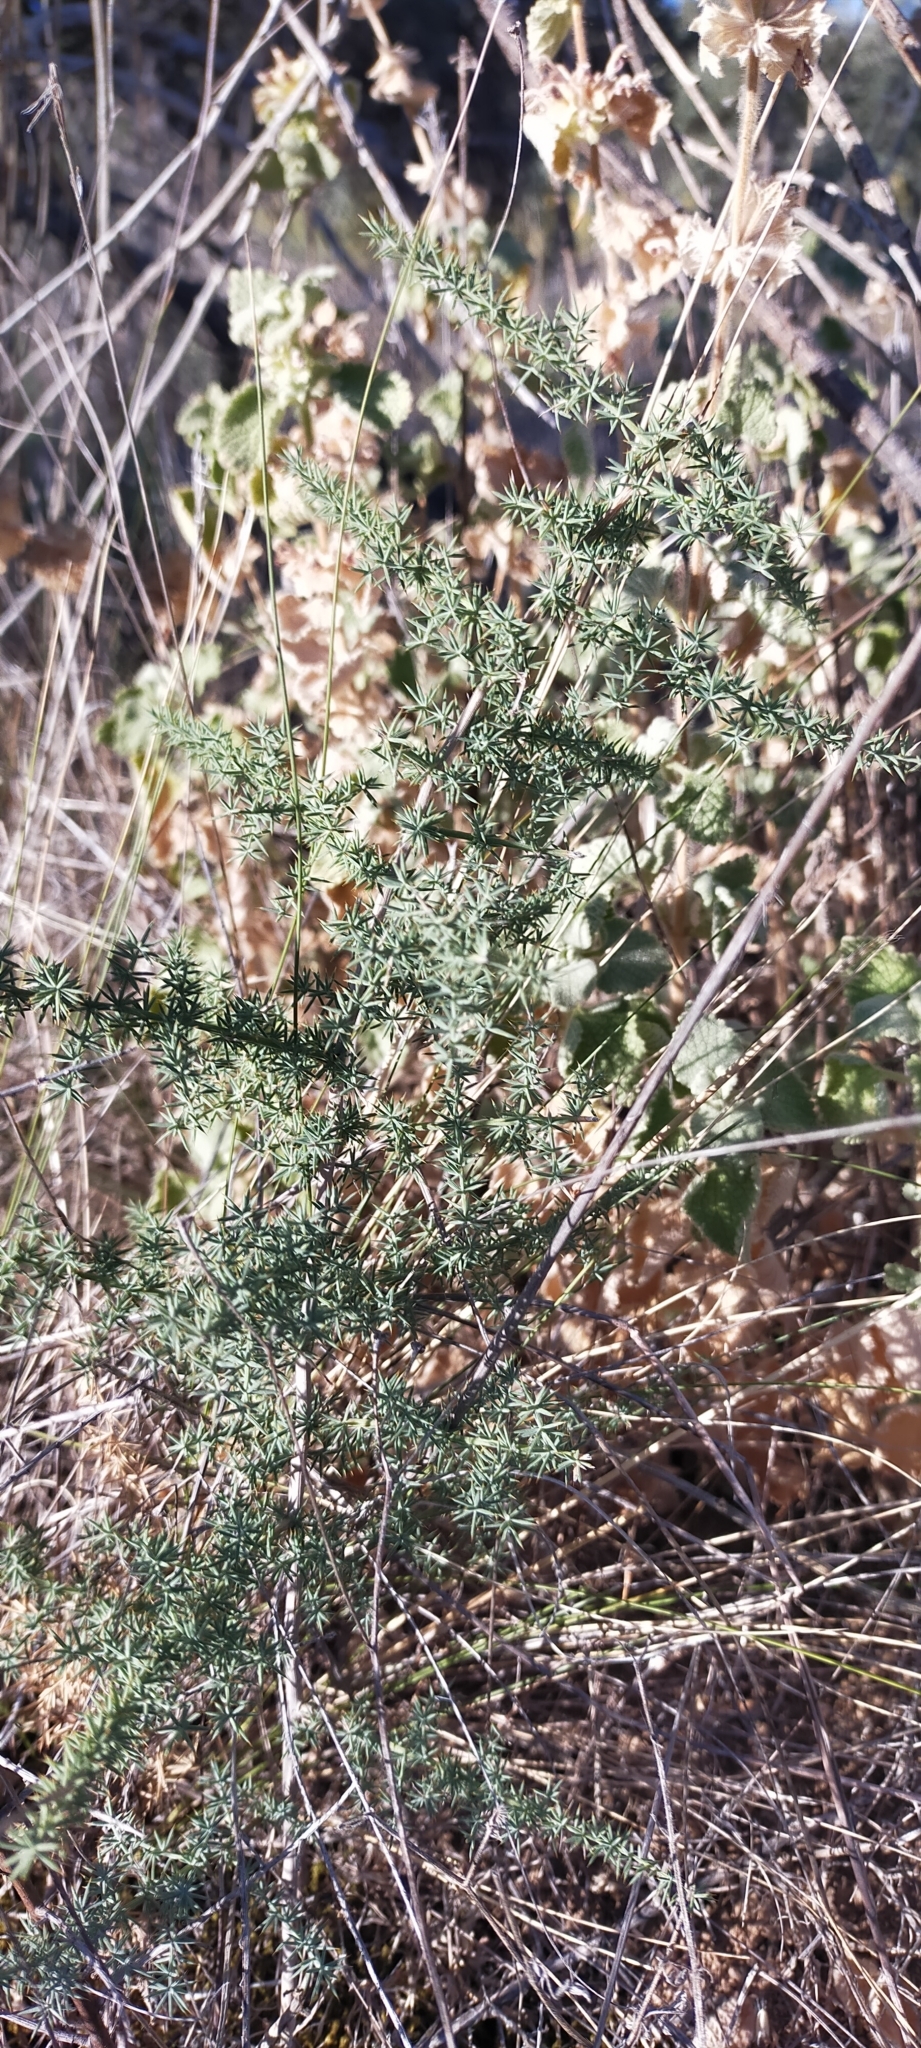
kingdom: Plantae
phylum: Tracheophyta
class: Liliopsida
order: Asparagales
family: Asparagaceae
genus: Asparagus
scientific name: Asparagus acutifolius
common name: Wild asparagus
